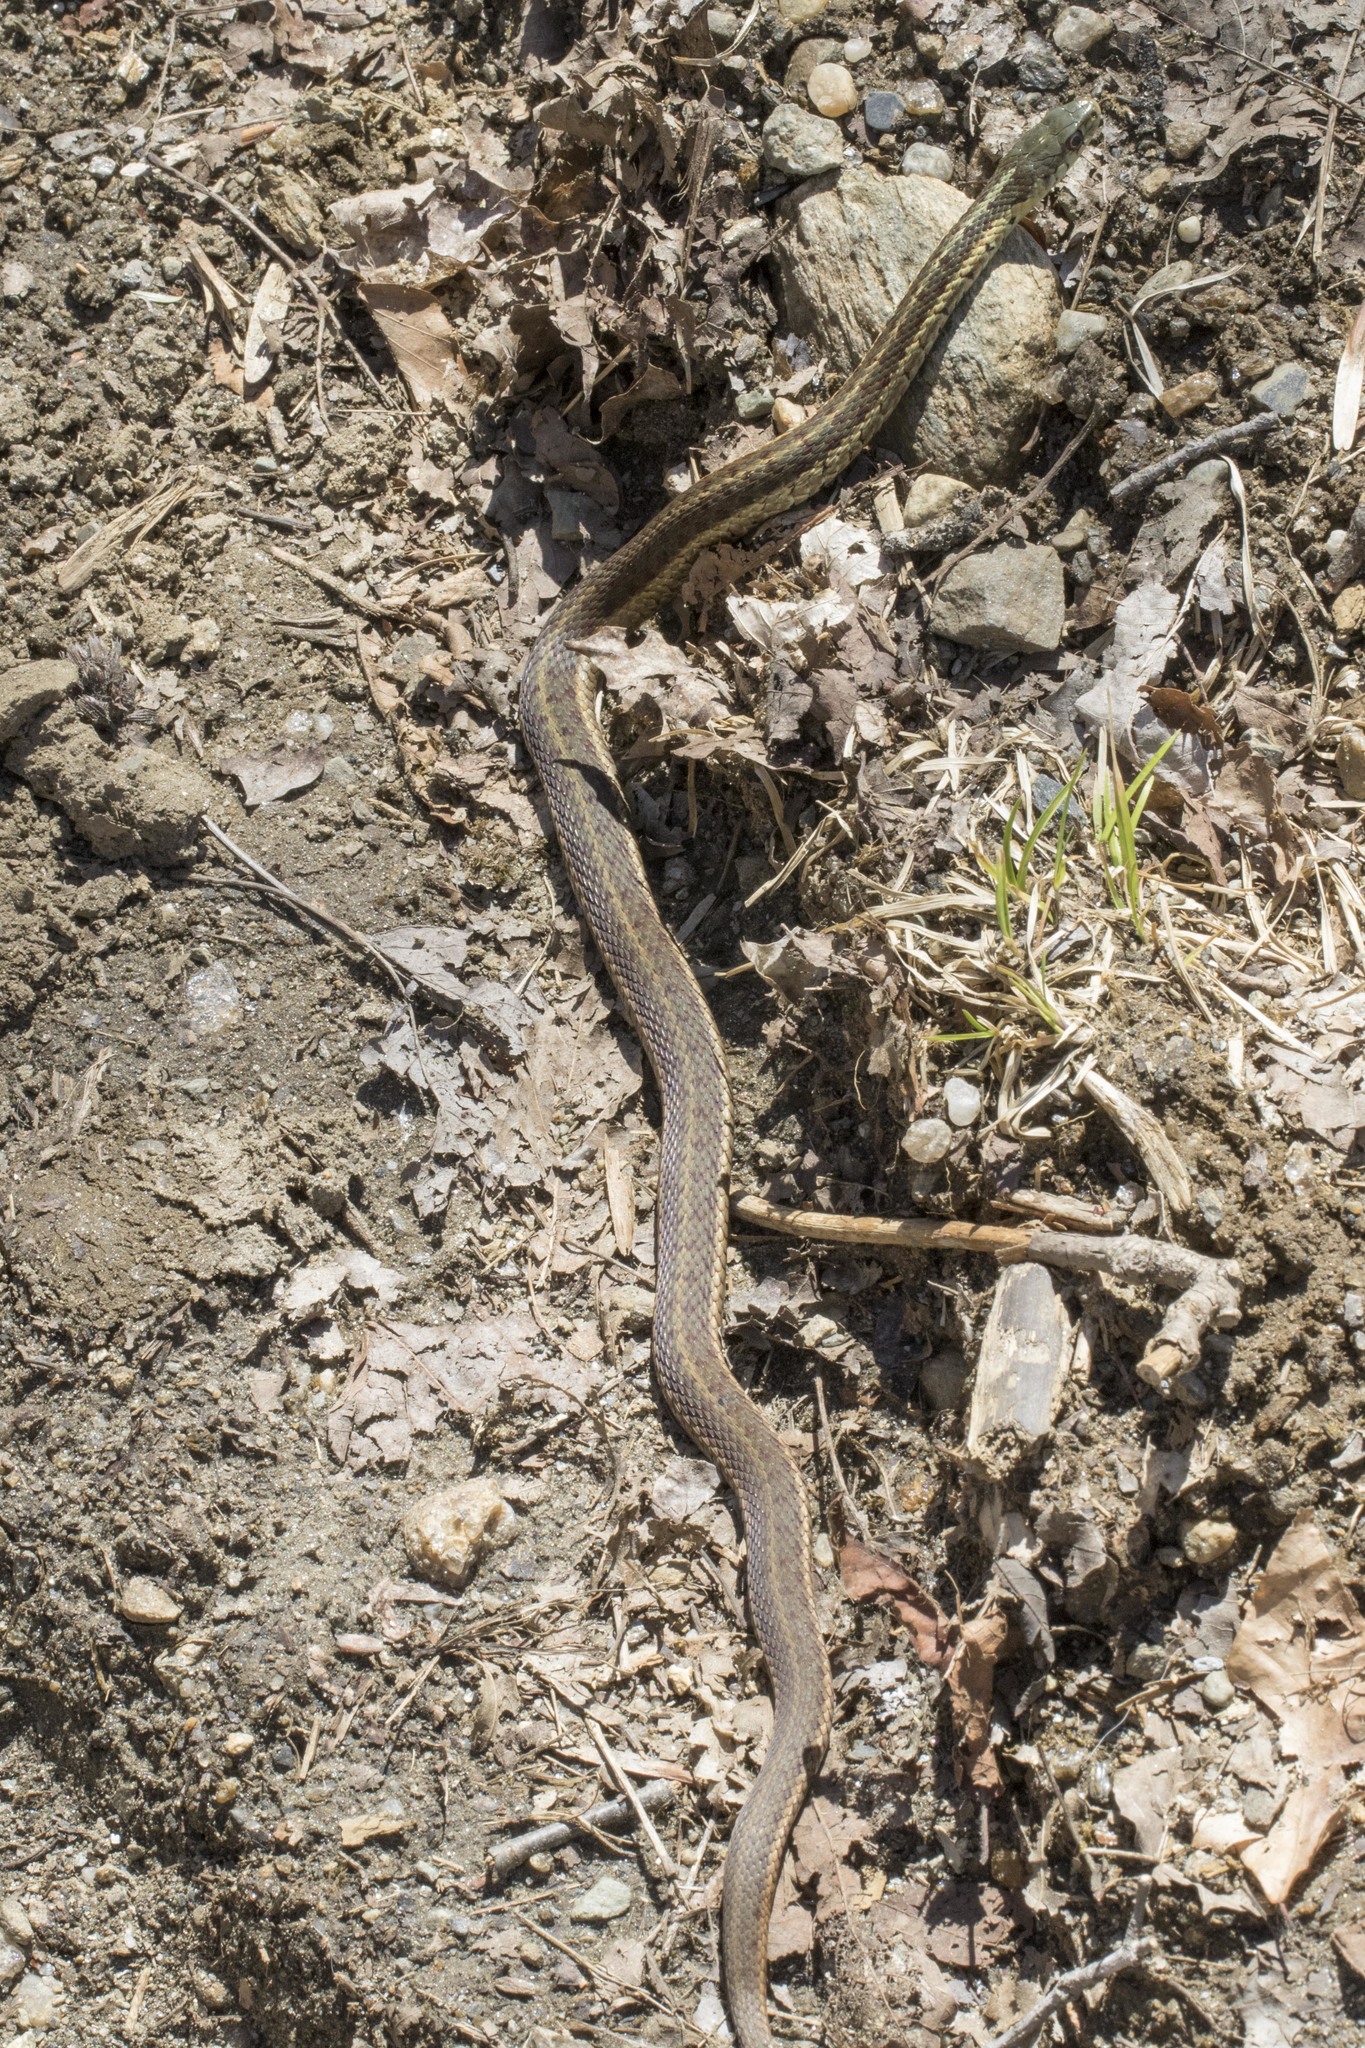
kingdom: Animalia
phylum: Chordata
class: Squamata
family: Colubridae
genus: Thamnophis
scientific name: Thamnophis sirtalis
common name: Common garter snake
